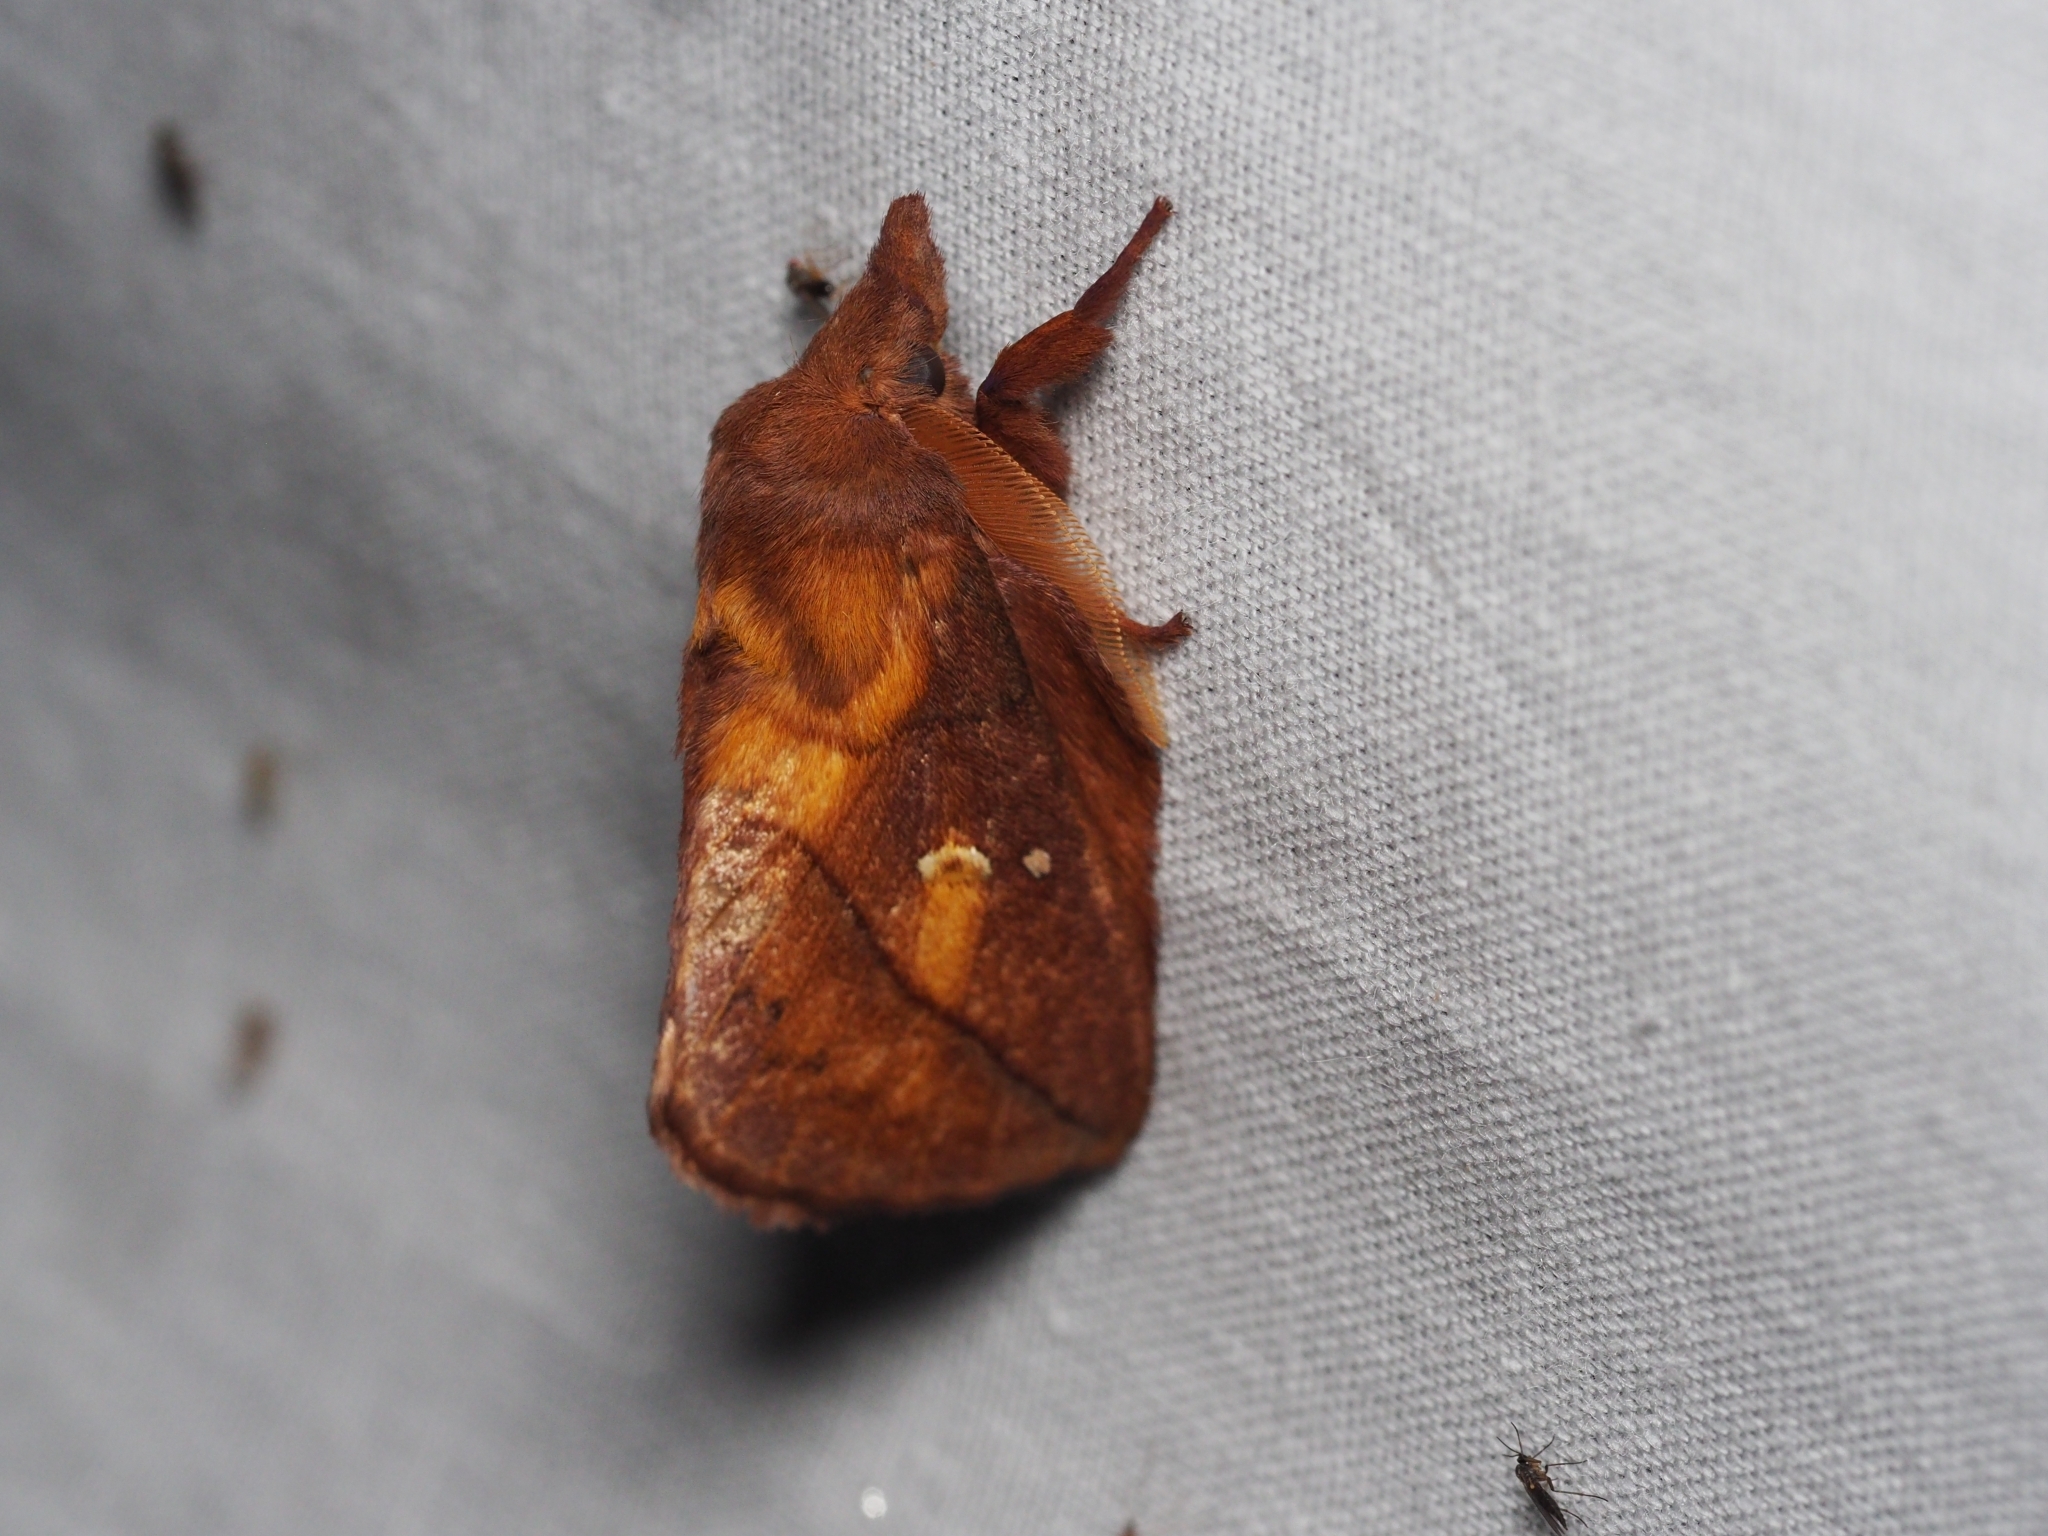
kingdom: Animalia
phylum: Arthropoda
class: Insecta
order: Lepidoptera
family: Lasiocampidae
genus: Euthrix
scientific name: Euthrix potatoria
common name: Drinker
